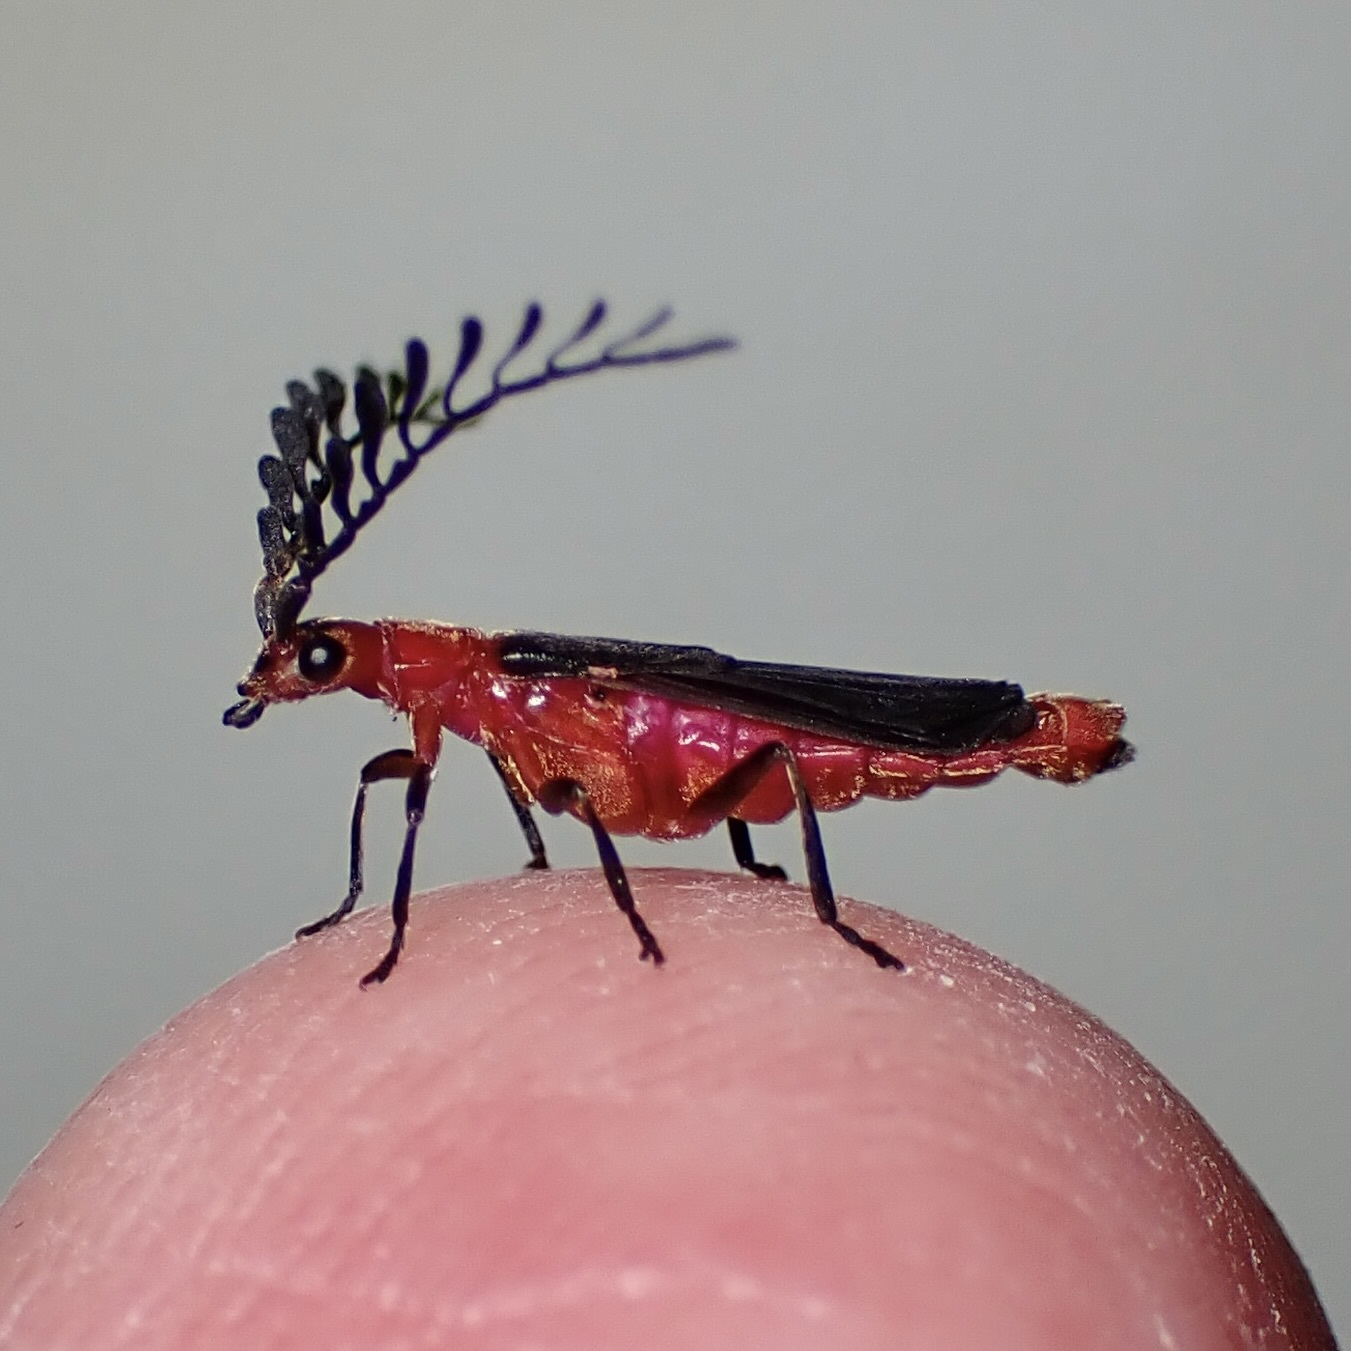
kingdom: Animalia
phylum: Arthropoda
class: Insecta
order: Coleoptera
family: Cantharidae
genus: Tytthonyx
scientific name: Tytthonyx bicolor
